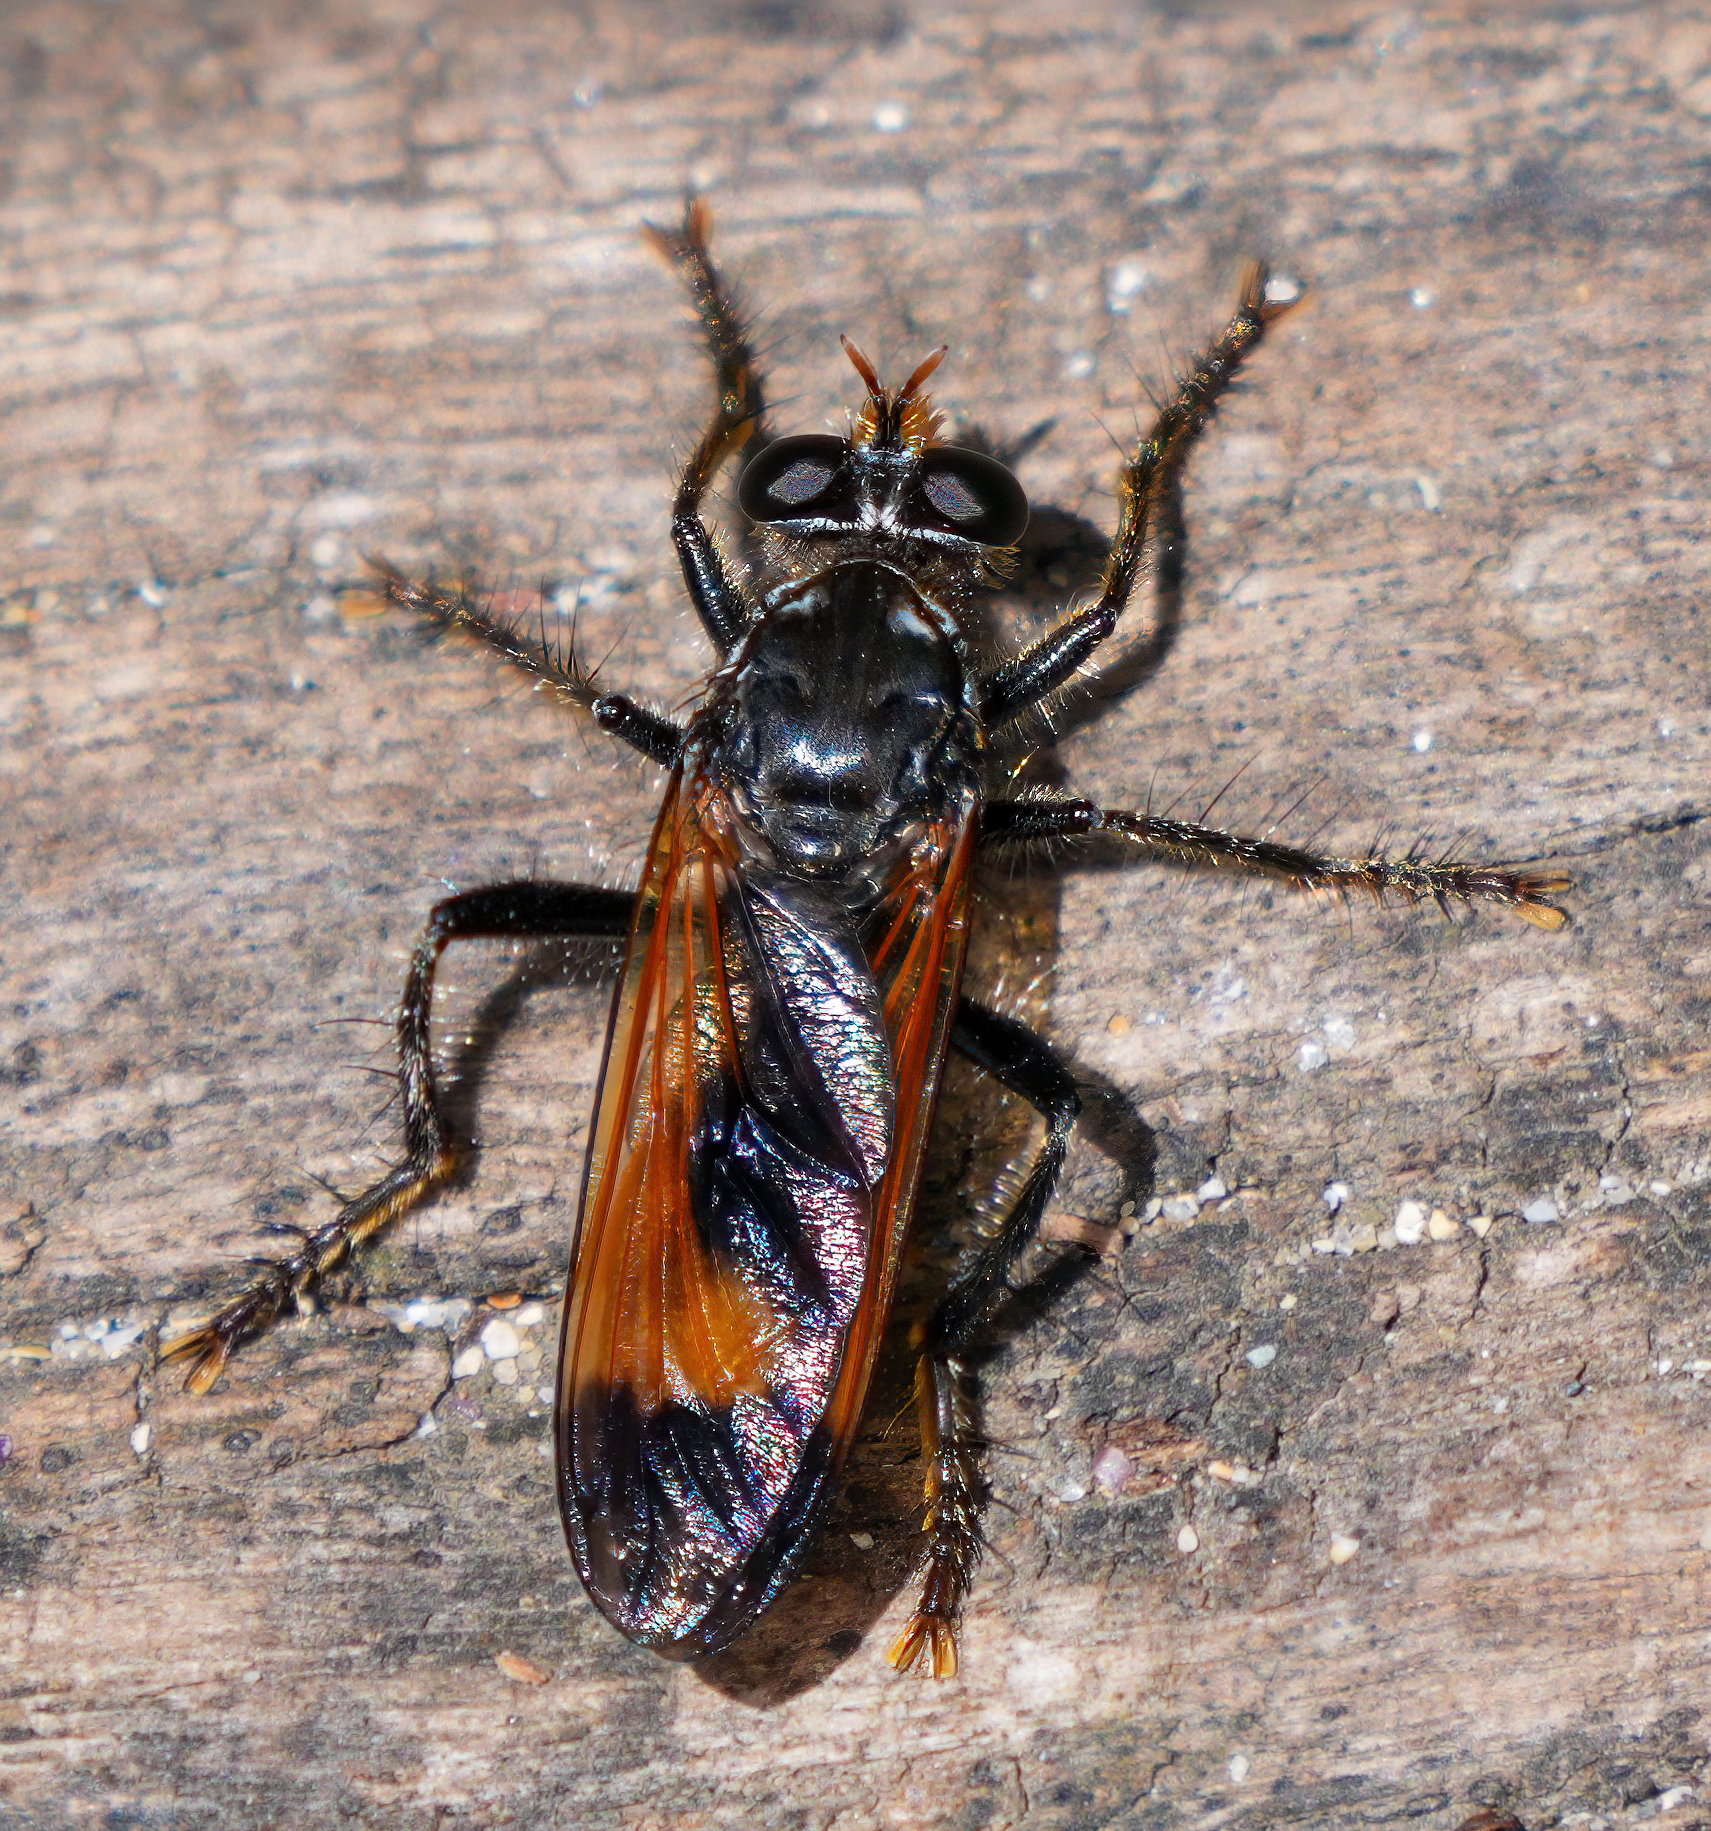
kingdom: Animalia
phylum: Arthropoda
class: Insecta
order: Diptera
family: Asilidae
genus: Orthogonis
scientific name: Orthogonis ornatipennis
